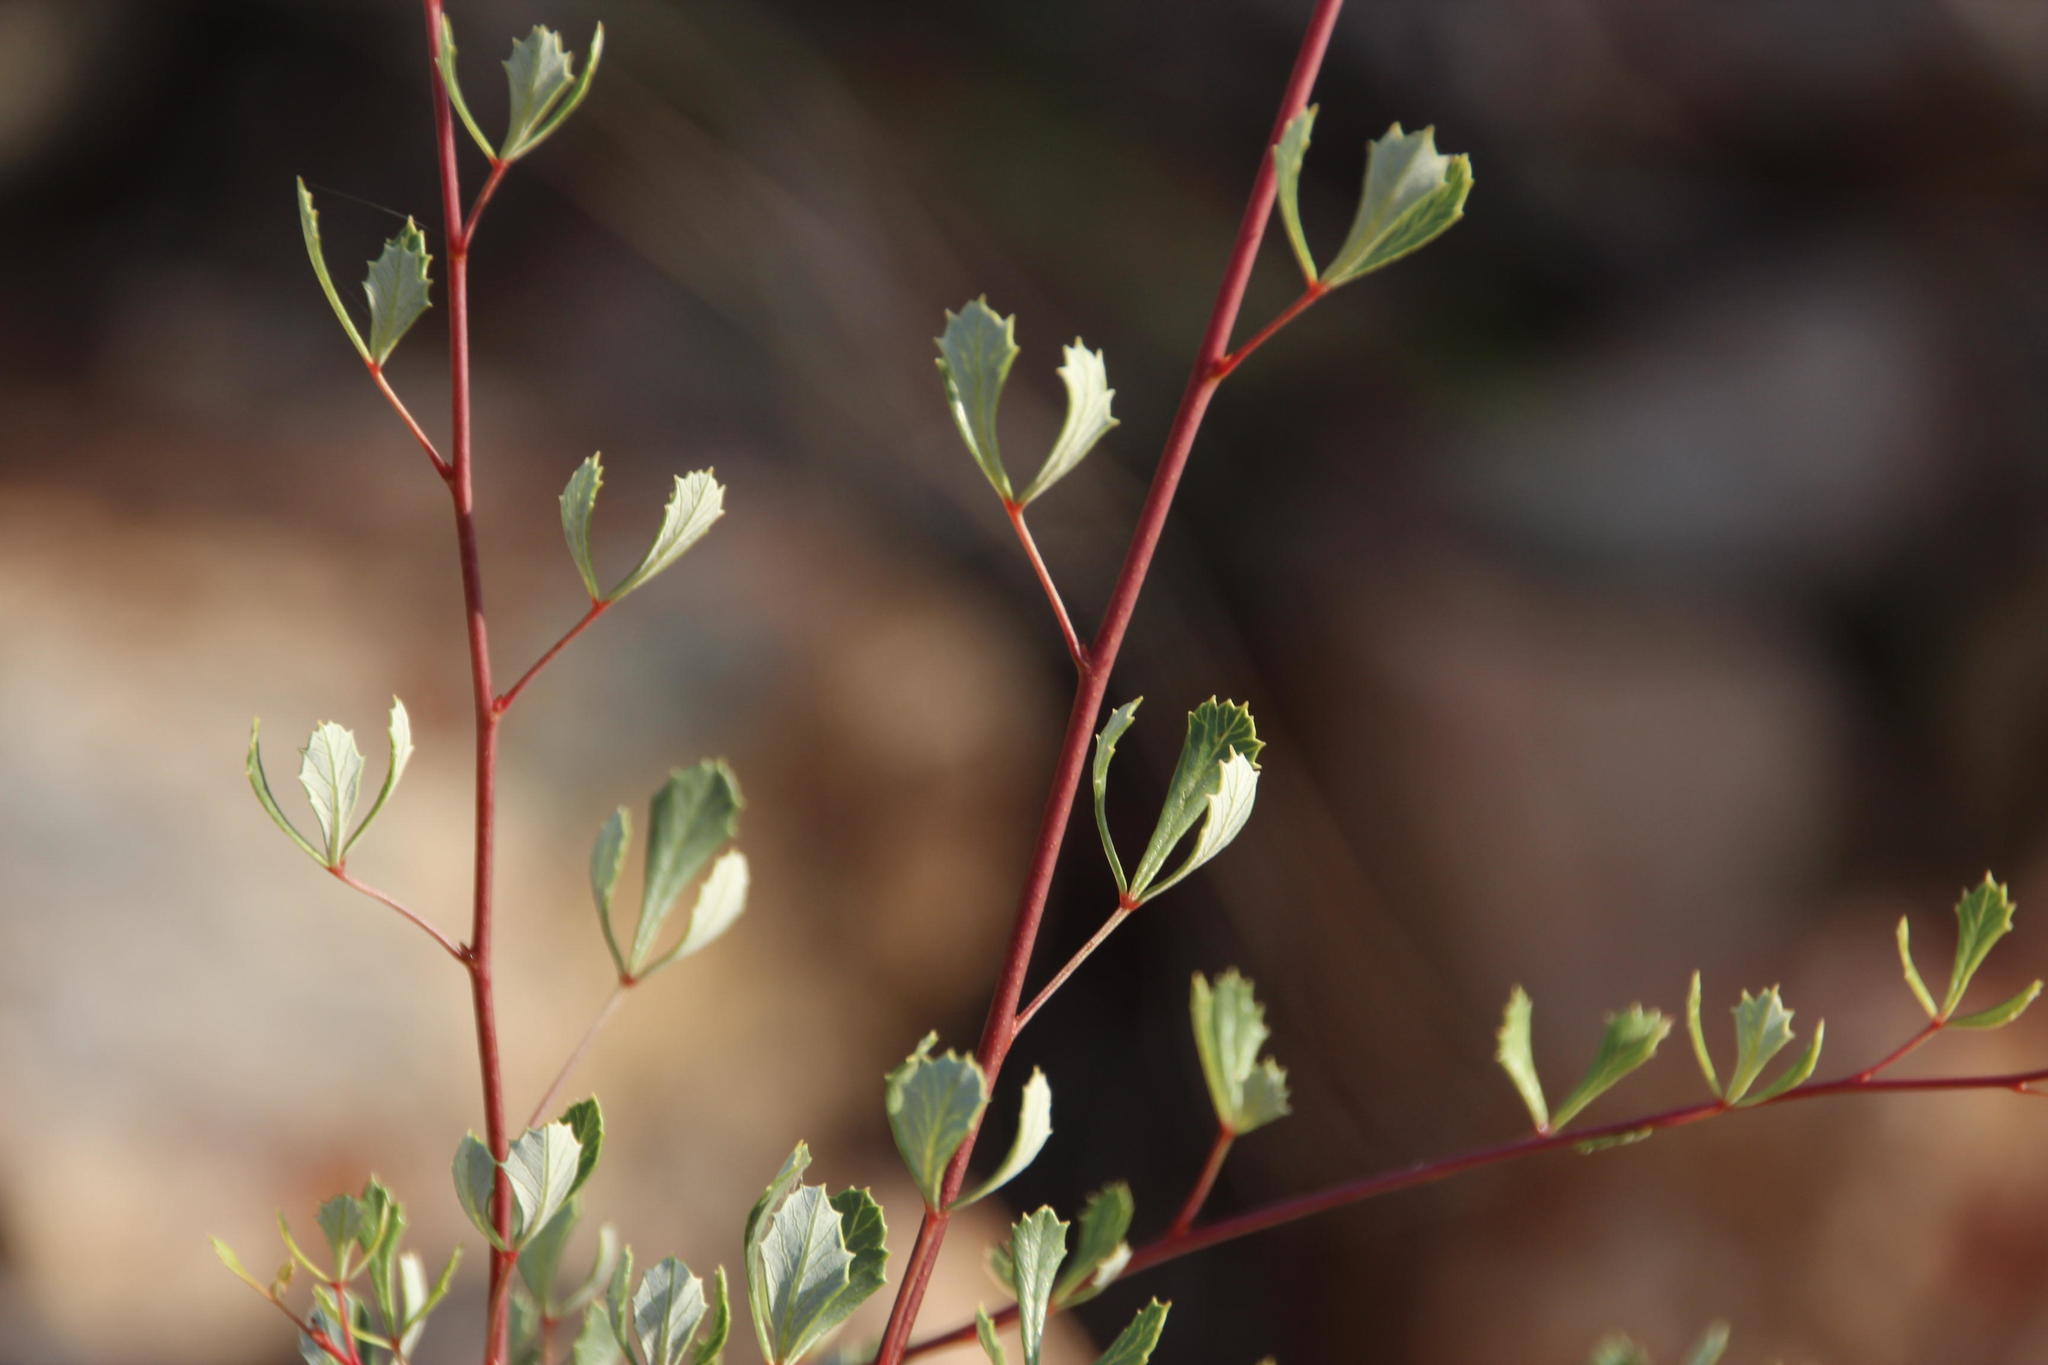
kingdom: Plantae
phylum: Tracheophyta
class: Magnoliopsida
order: Sapindales
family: Anacardiaceae
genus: Searsia
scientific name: Searsia dissecta
